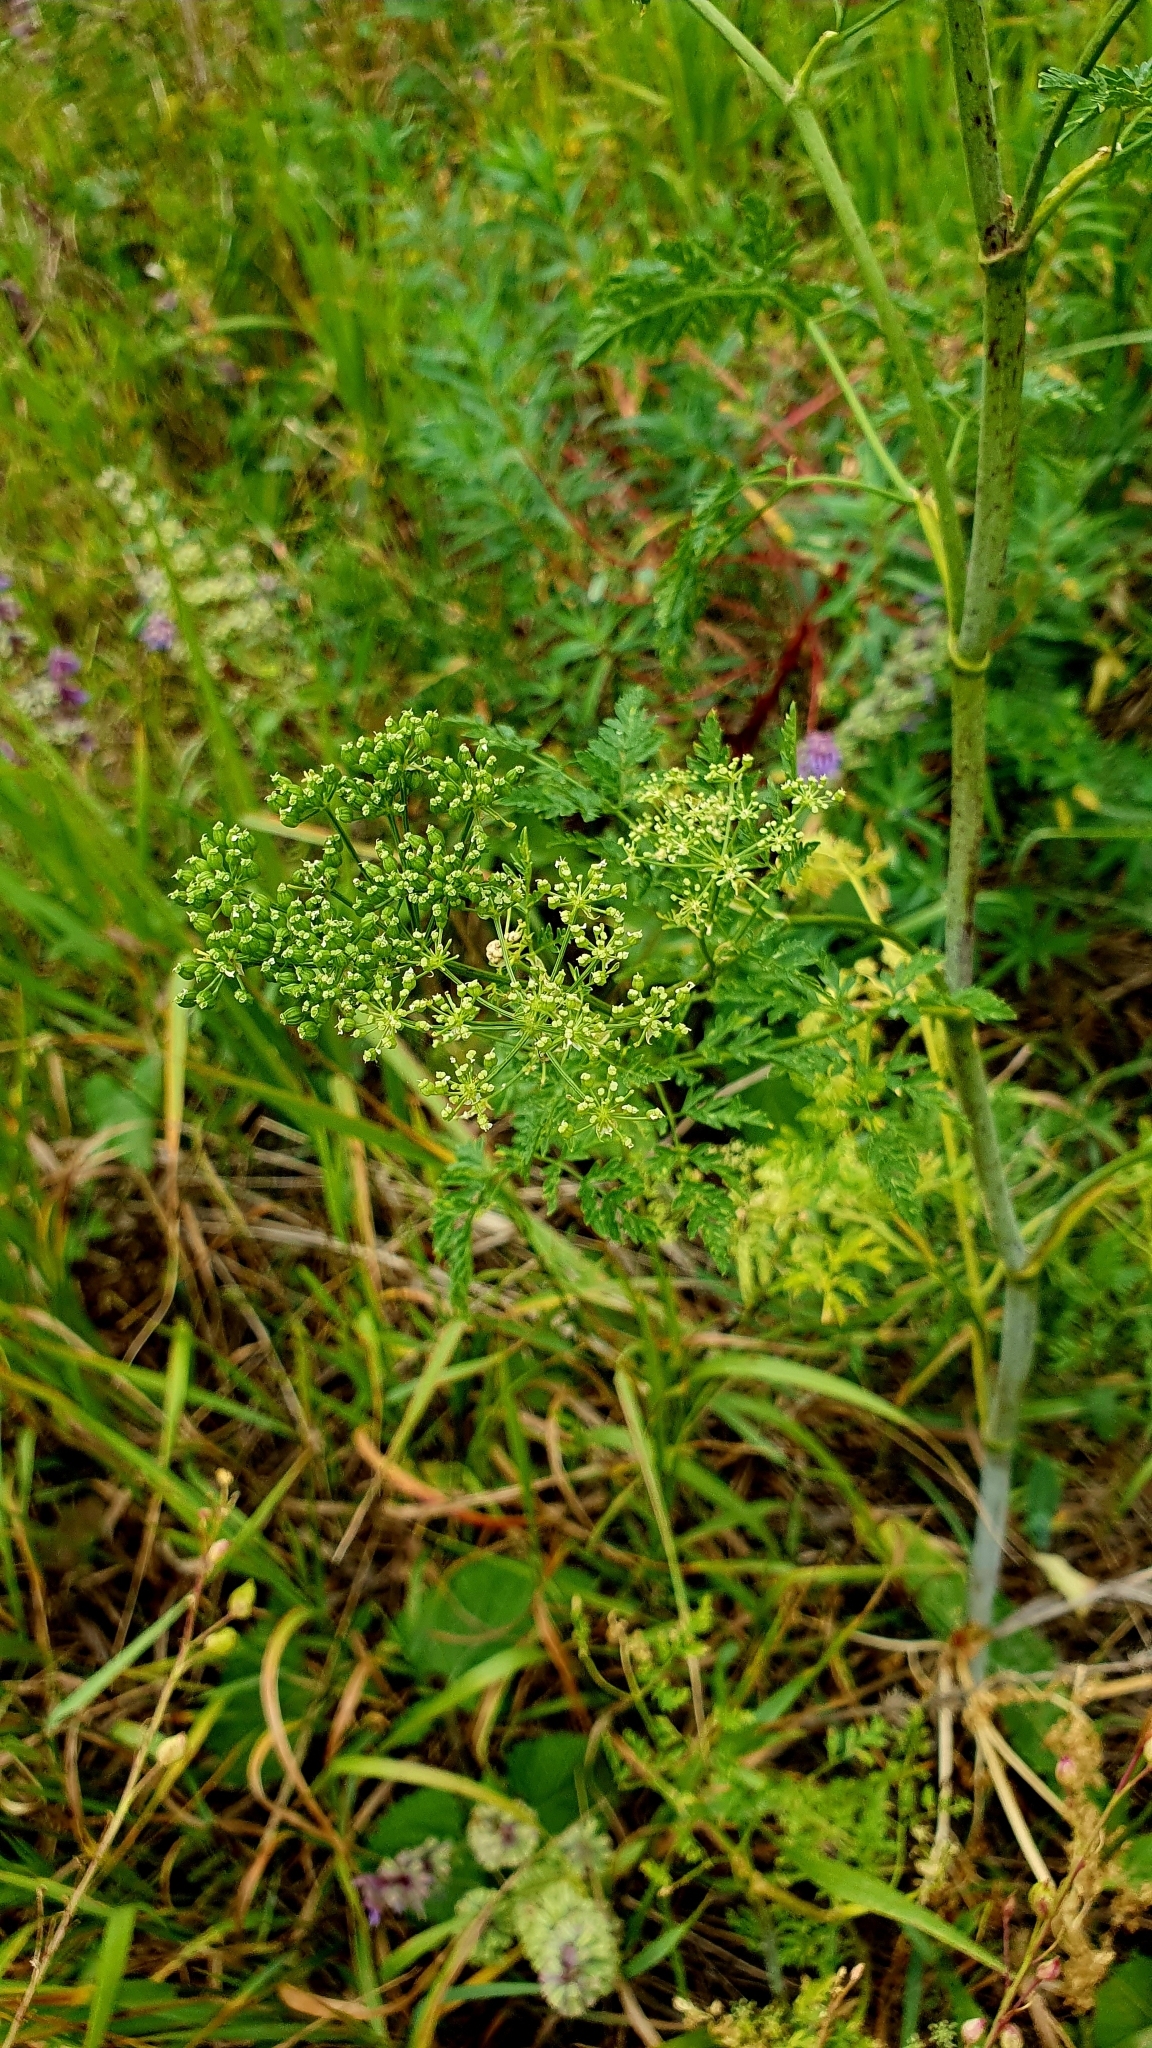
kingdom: Plantae
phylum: Tracheophyta
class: Magnoliopsida
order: Apiales
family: Apiaceae
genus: Conium
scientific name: Conium maculatum
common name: Hemlock
